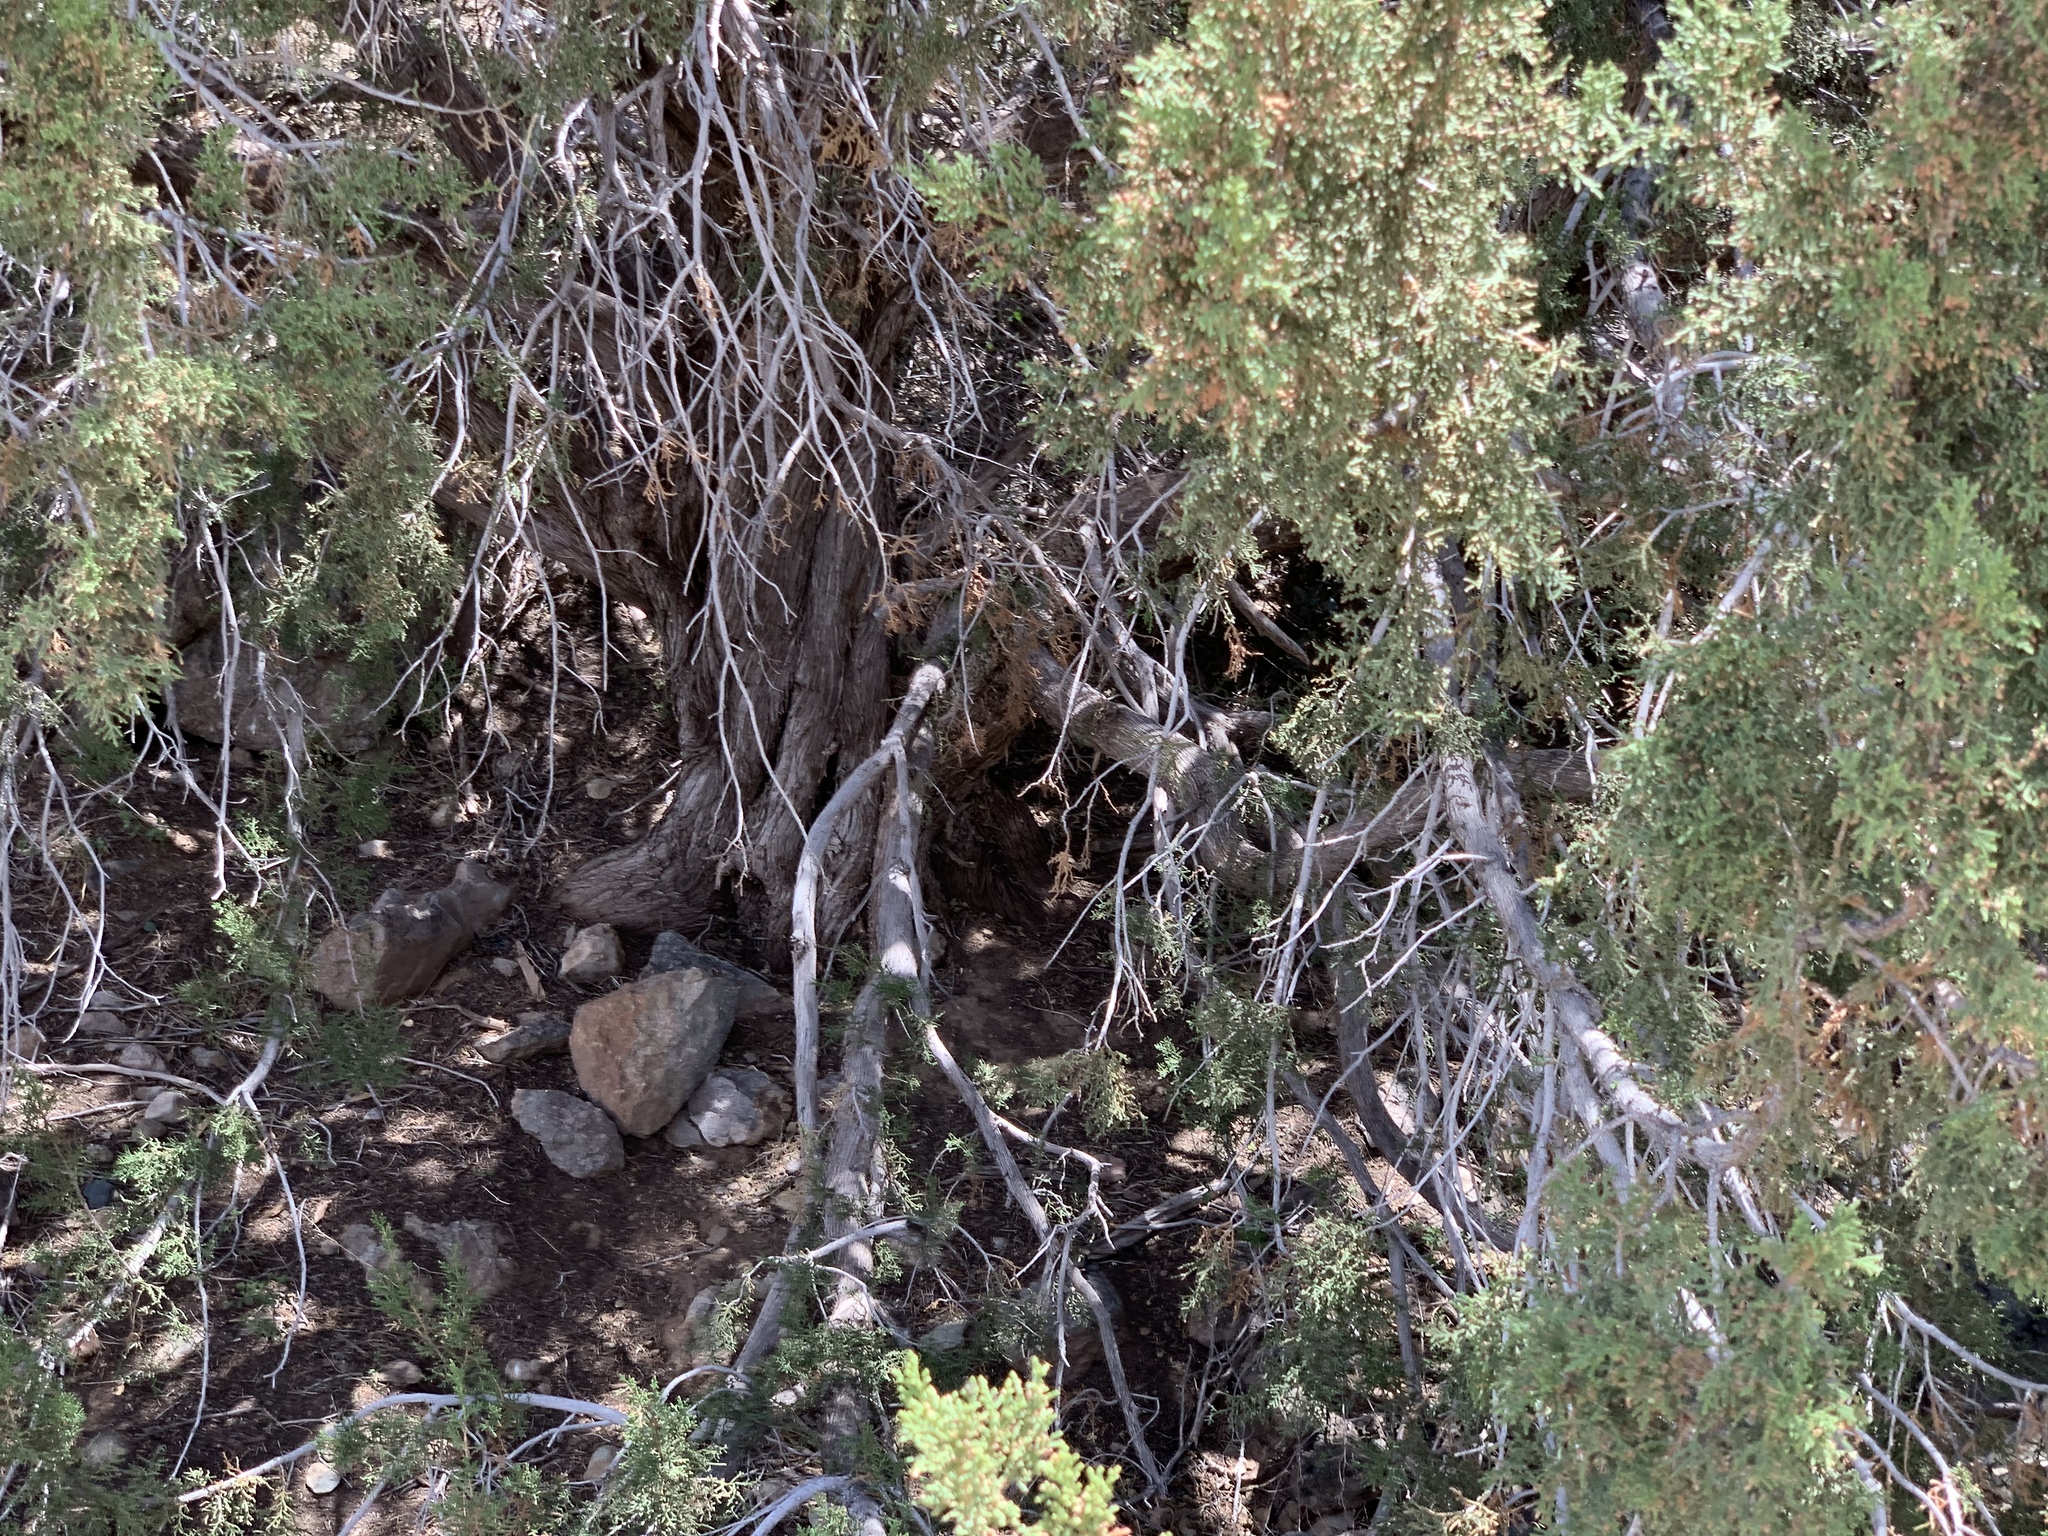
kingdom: Plantae
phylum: Tracheophyta
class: Pinopsida
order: Pinales
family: Cupressaceae
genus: Juniperus
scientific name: Juniperus monosperma
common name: One-seed juniper
